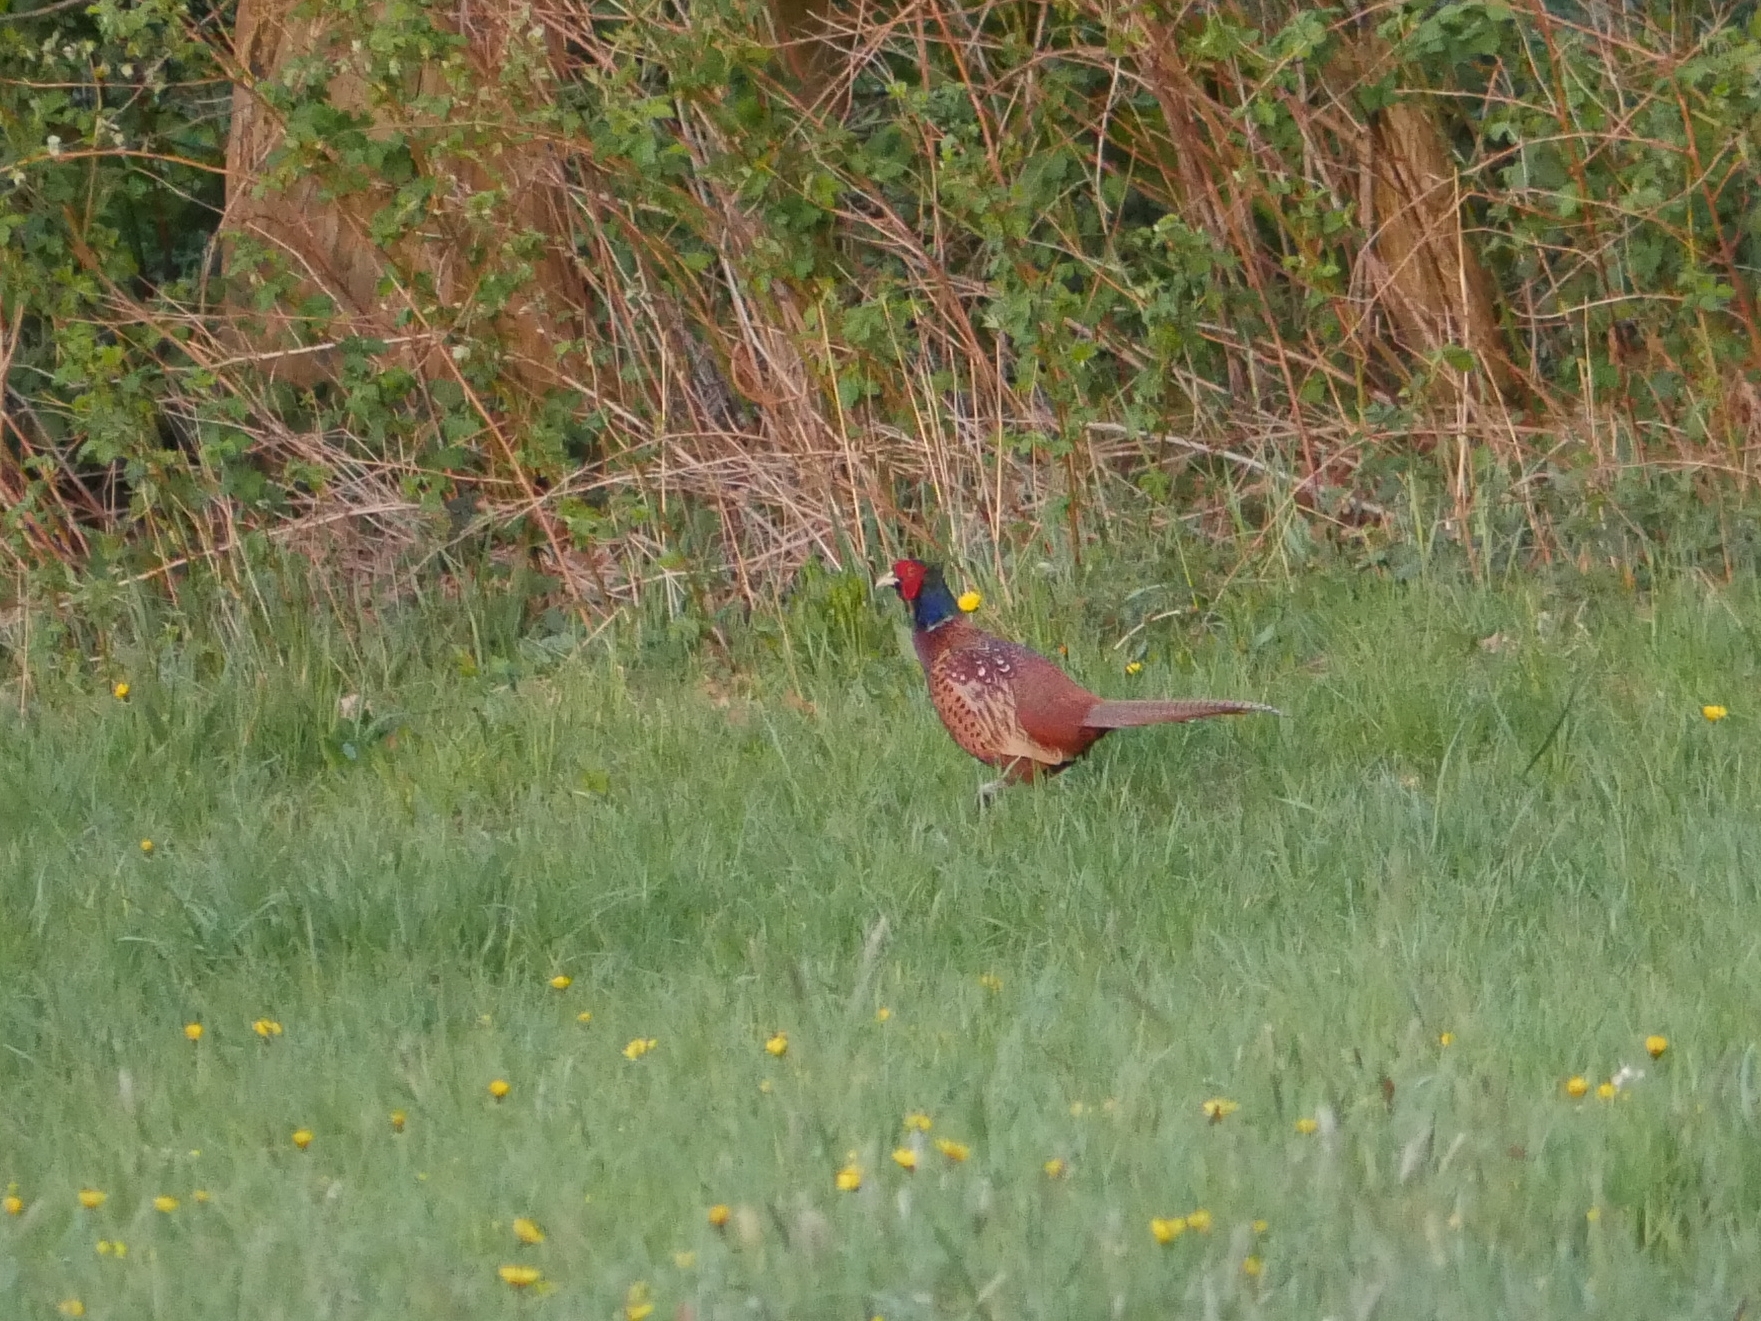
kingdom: Animalia
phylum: Chordata
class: Aves
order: Galliformes
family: Phasianidae
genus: Phasianus
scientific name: Phasianus colchicus
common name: Common pheasant
